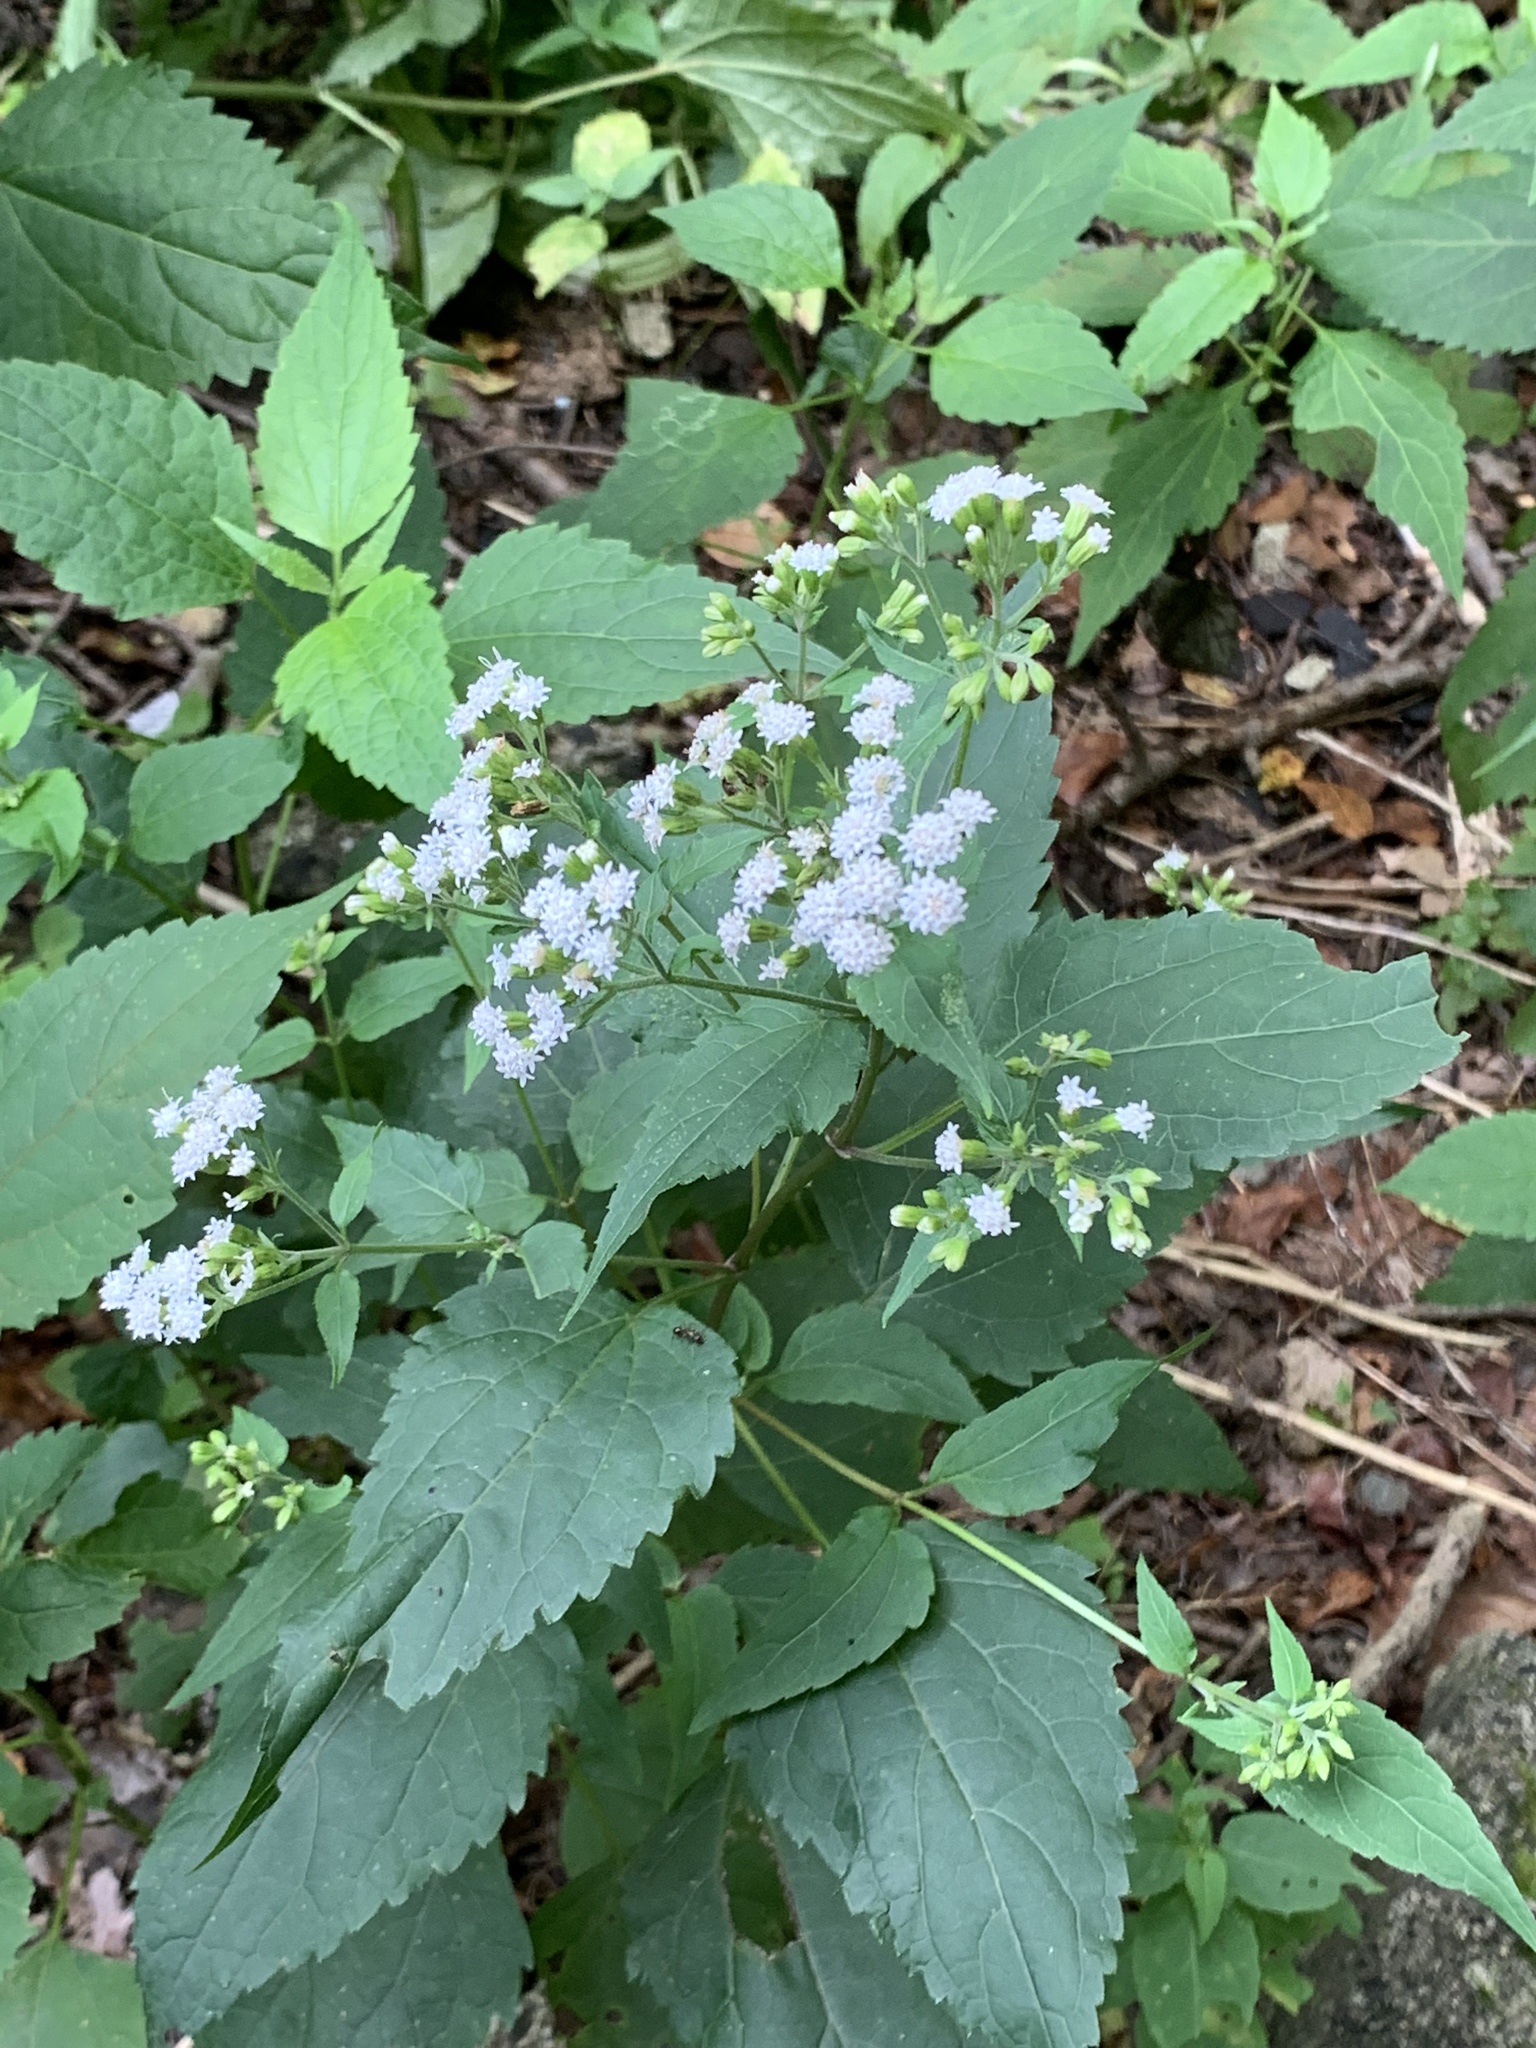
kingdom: Plantae
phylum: Tracheophyta
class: Magnoliopsida
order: Asterales
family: Asteraceae
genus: Ageratina
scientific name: Ageratina altissima
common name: White snakeroot
